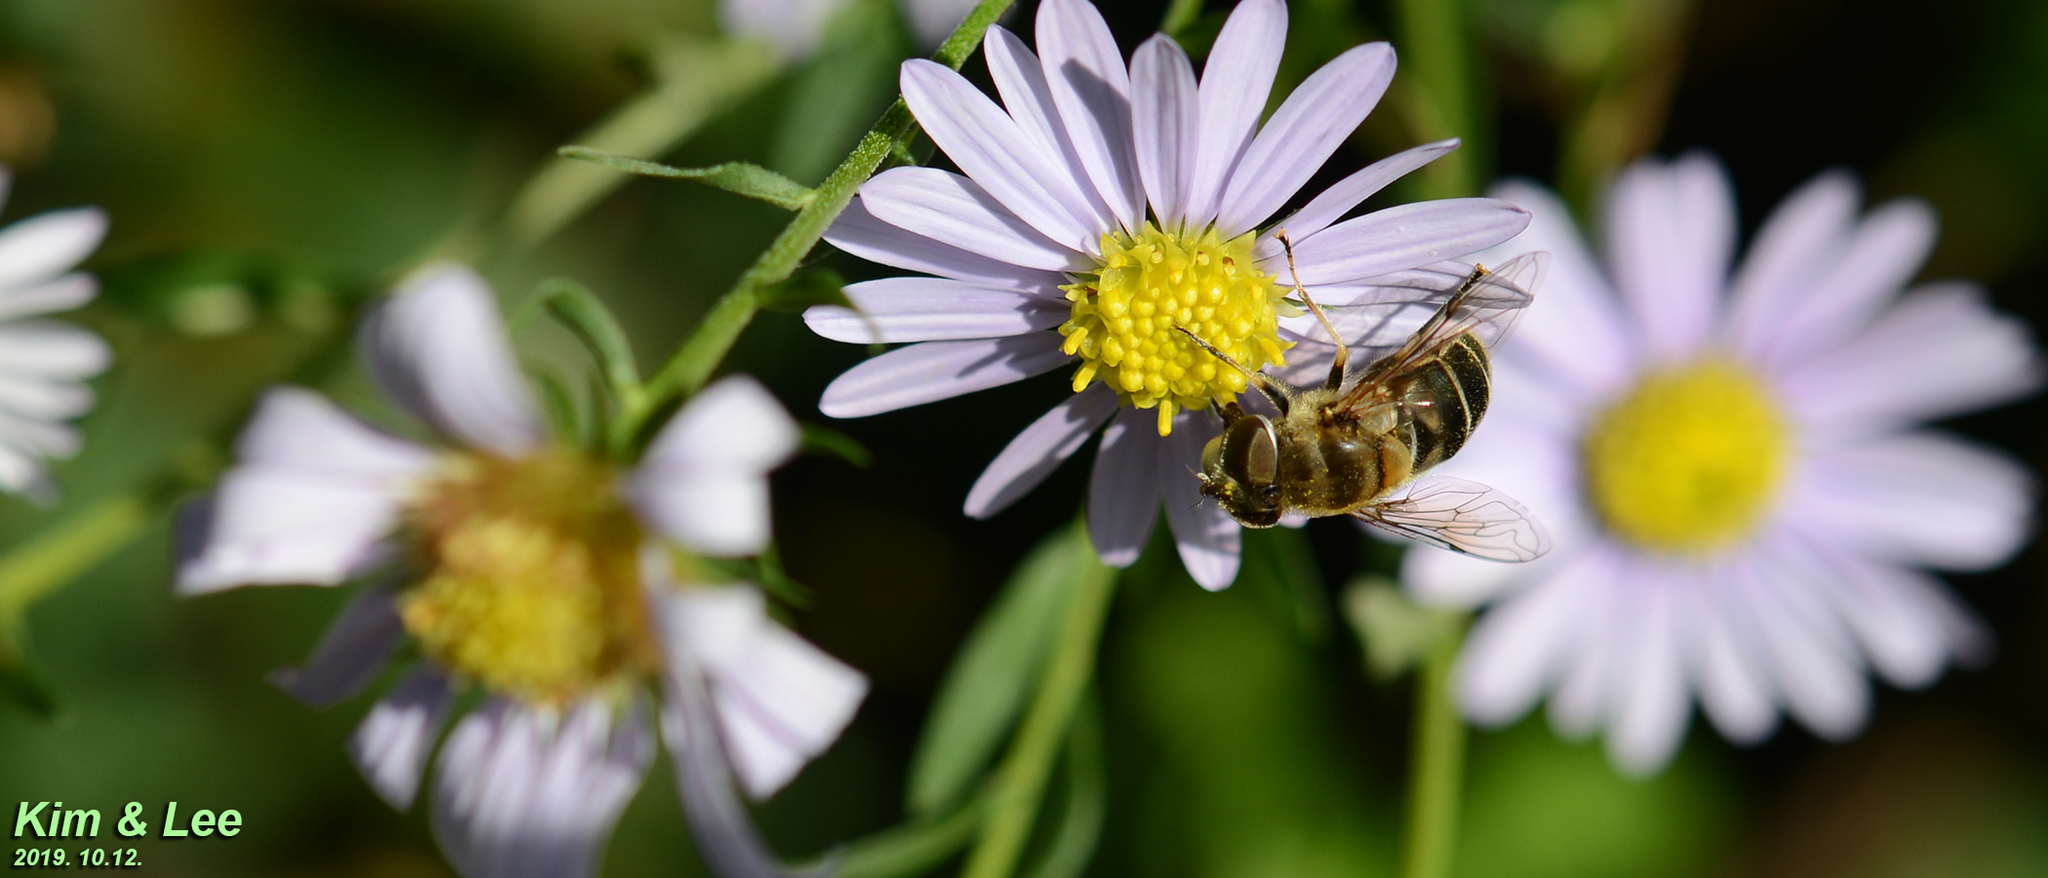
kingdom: Animalia
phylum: Arthropoda
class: Insecta
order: Diptera
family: Syrphidae
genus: Eristalis
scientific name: Eristalis cerealis
